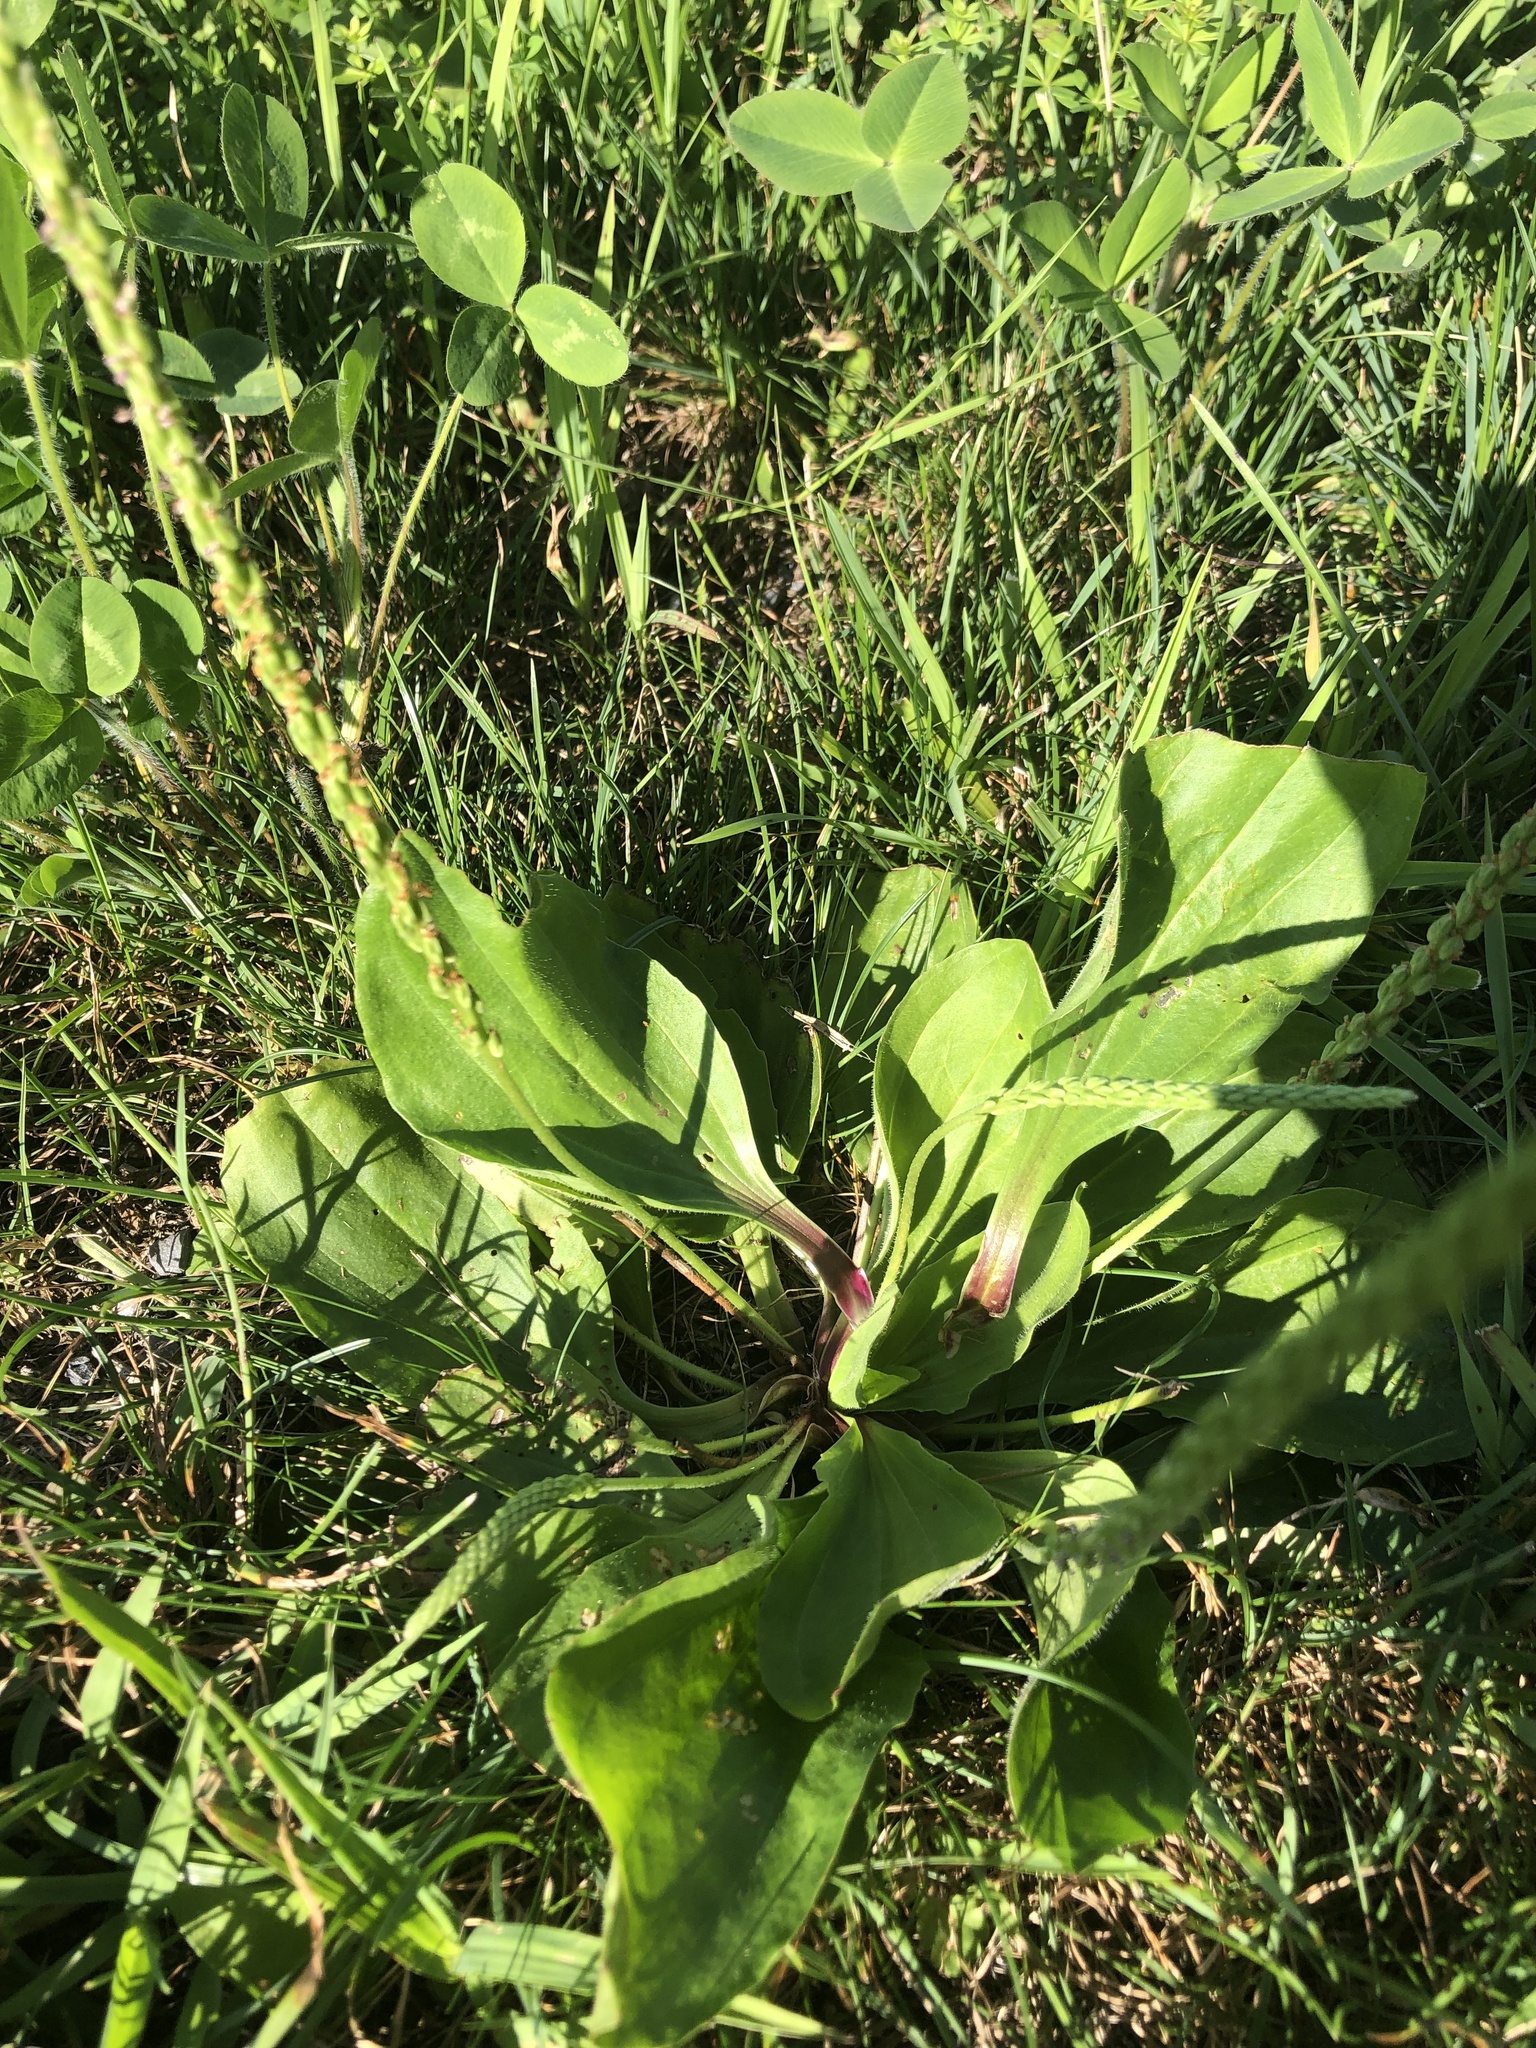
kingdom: Plantae
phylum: Tracheophyta
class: Magnoliopsida
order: Lamiales
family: Plantaginaceae
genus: Plantago
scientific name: Plantago rugelii
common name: American plantain
